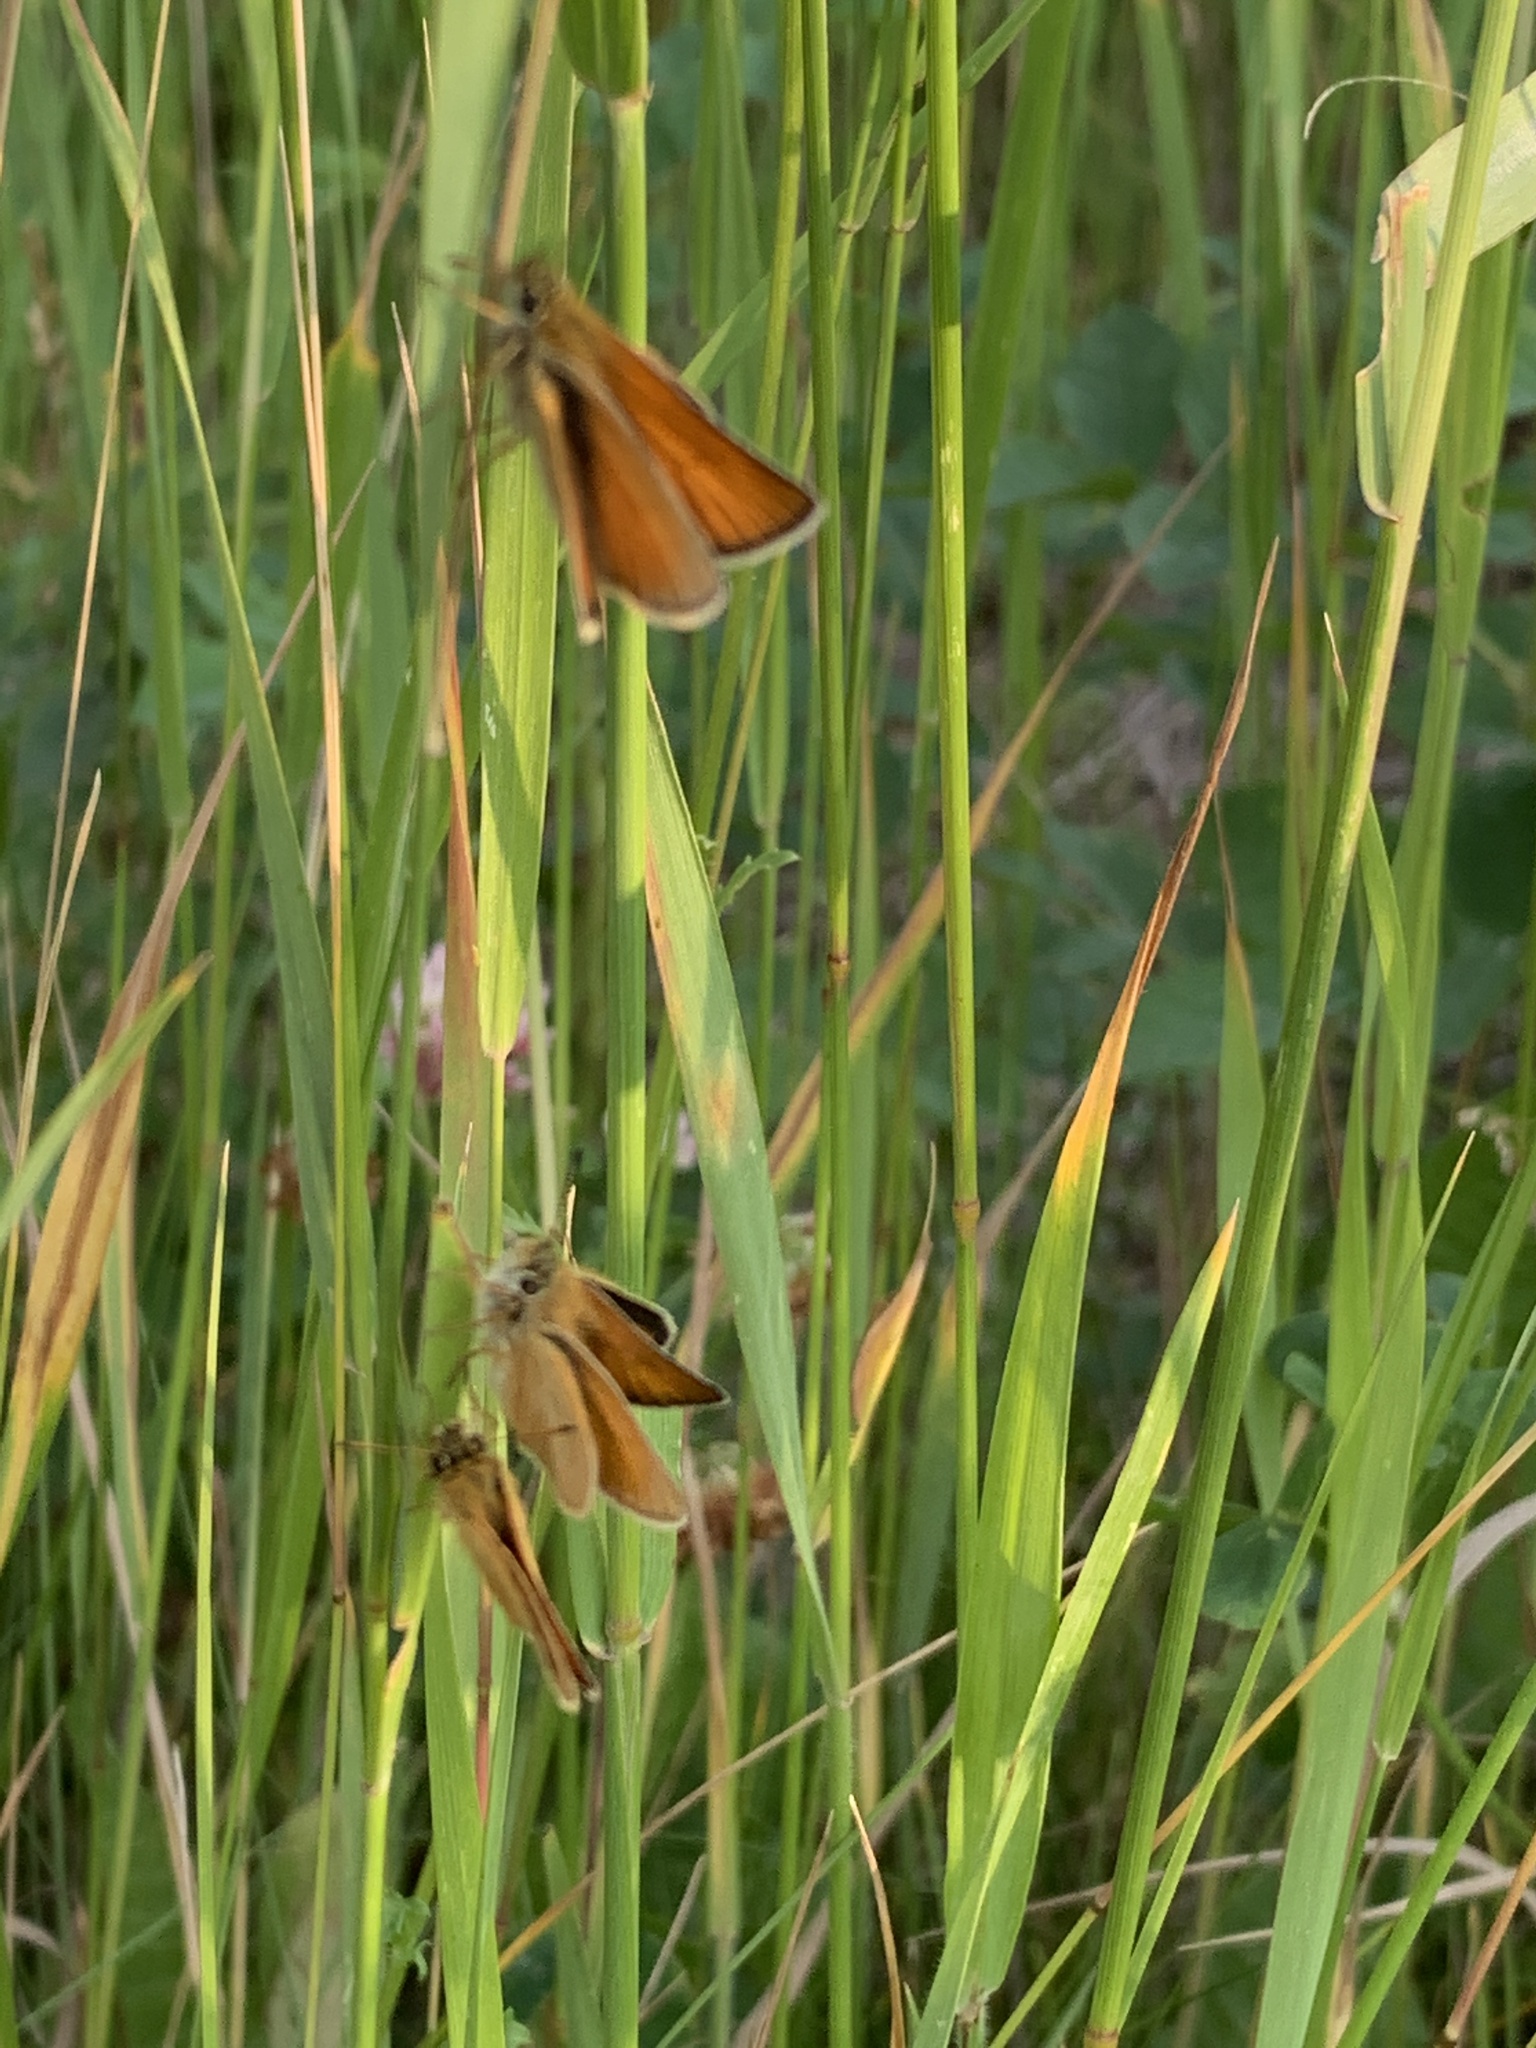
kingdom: Animalia
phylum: Arthropoda
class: Insecta
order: Lepidoptera
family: Hesperiidae
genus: Thymelicus
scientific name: Thymelicus lineola
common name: Essex skipper
